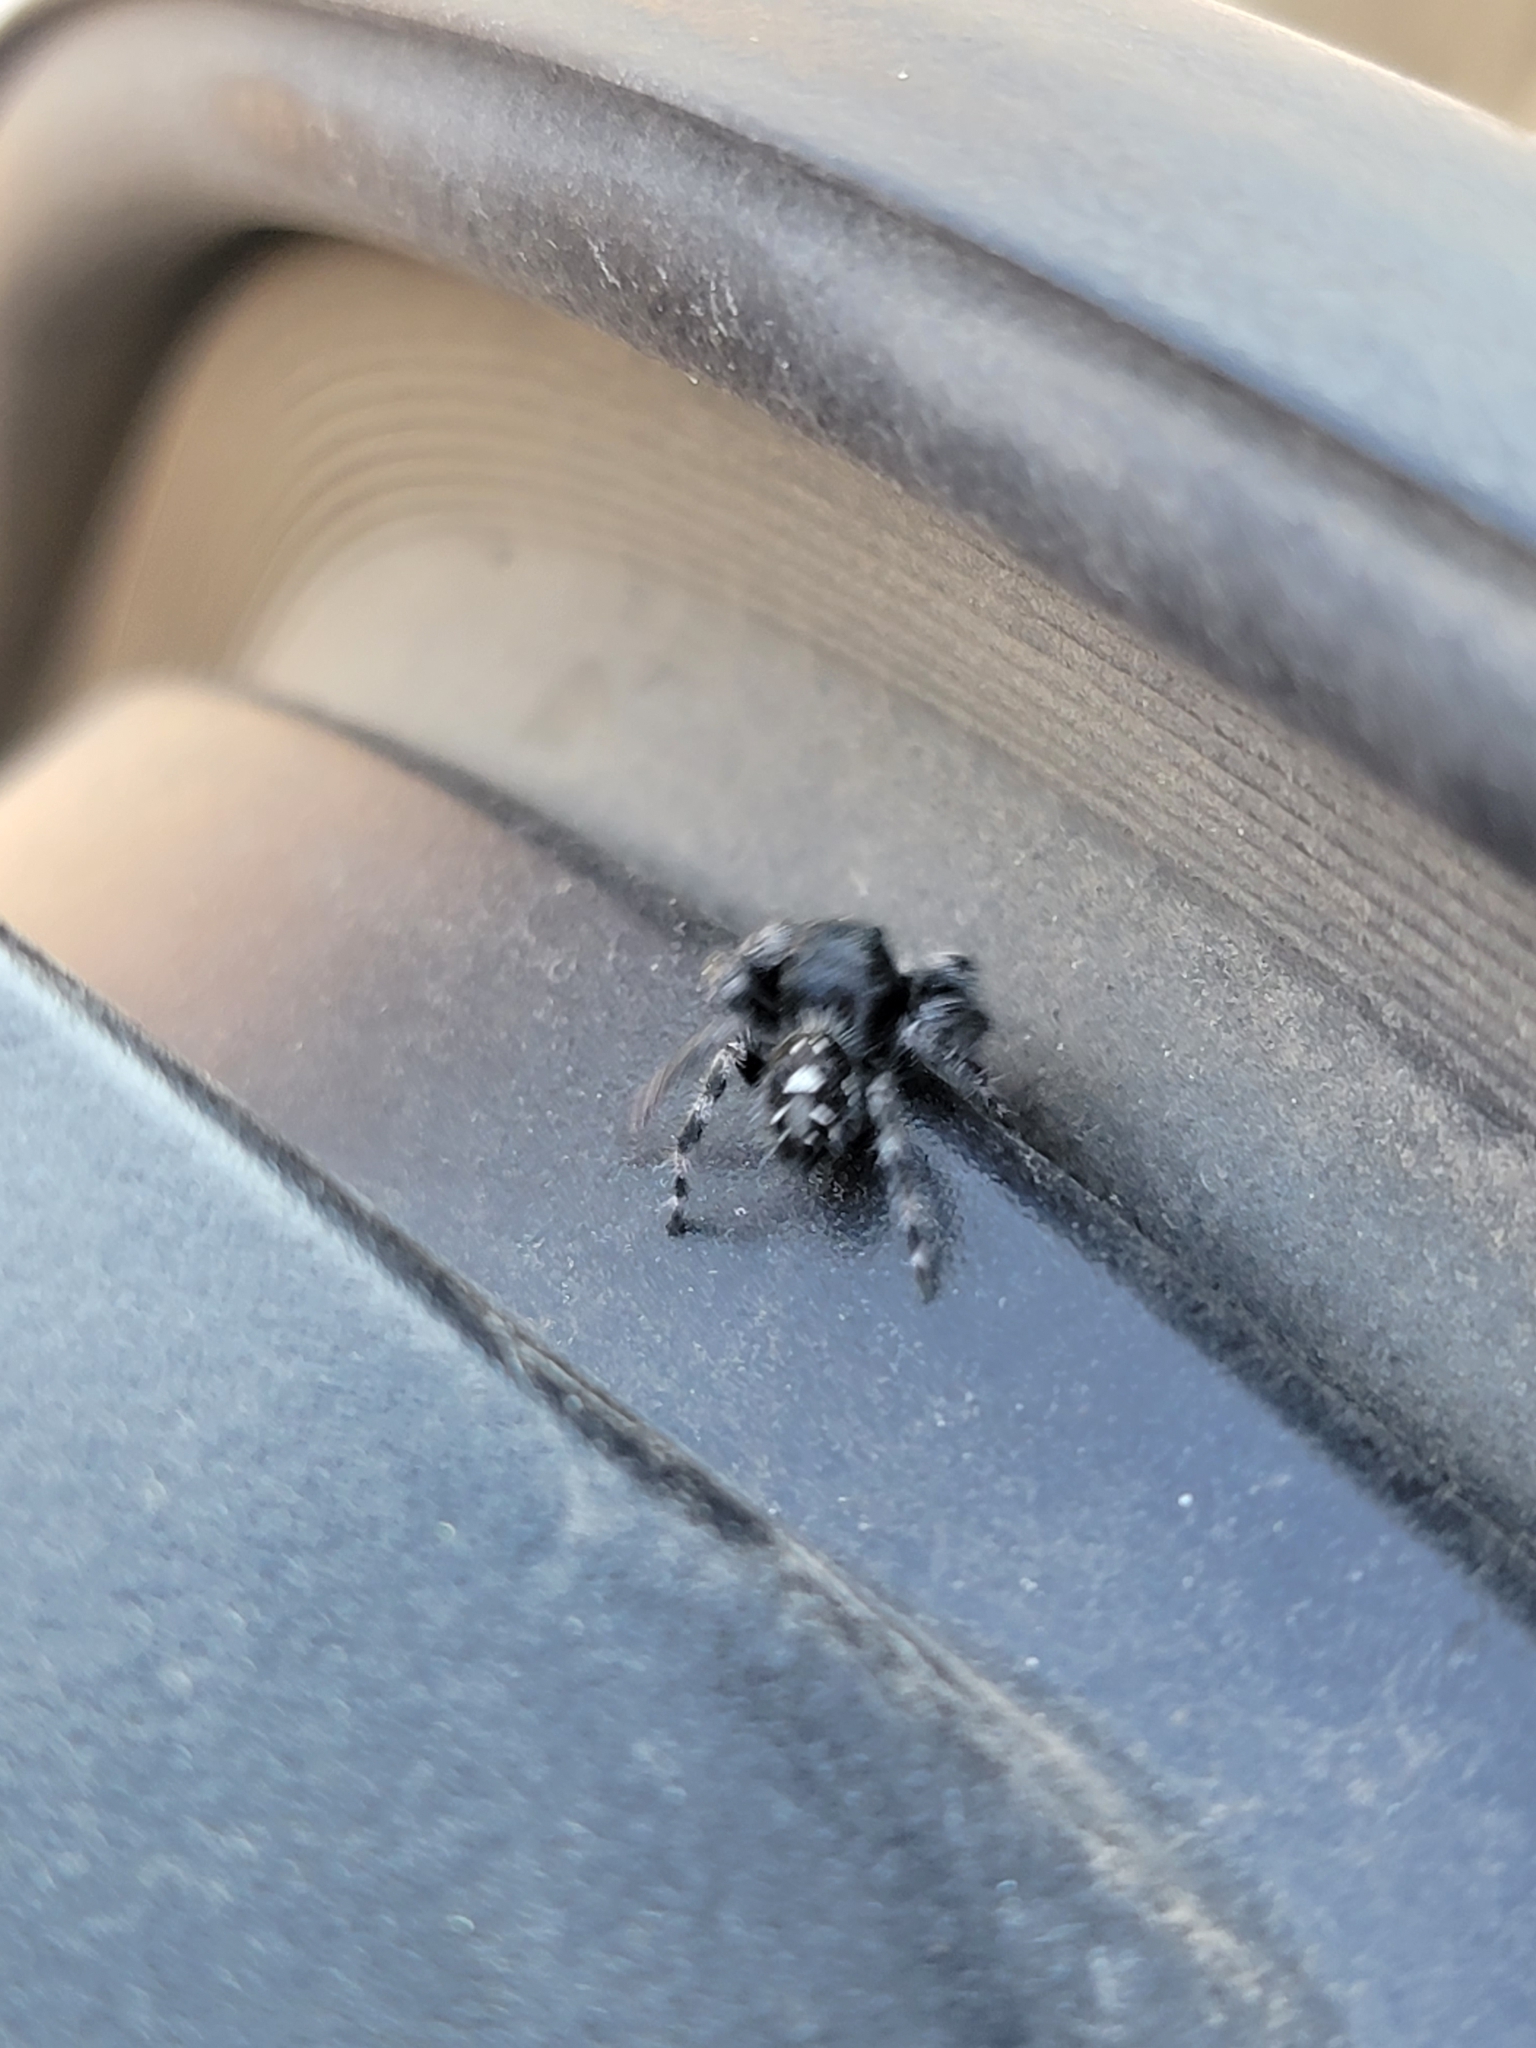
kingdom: Animalia
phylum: Arthropoda
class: Arachnida
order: Araneae
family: Salticidae
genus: Phidippus
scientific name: Phidippus audax
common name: Bold jumper
